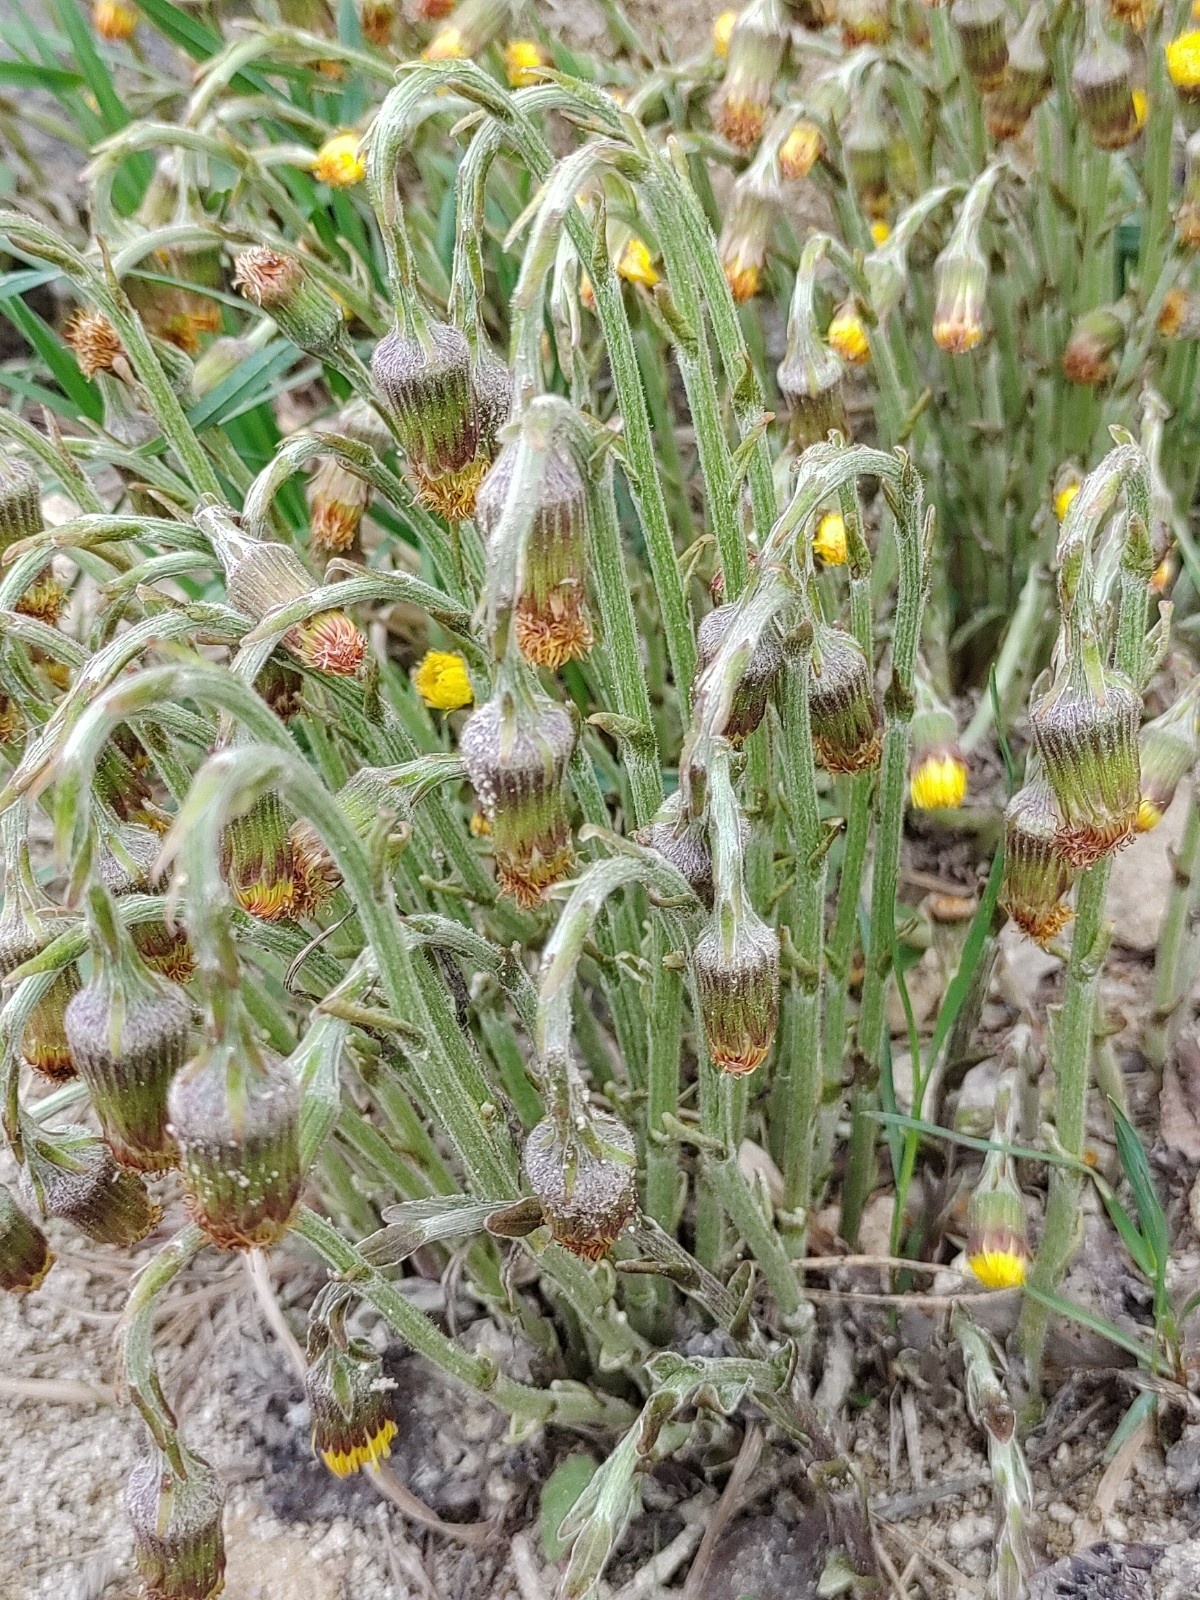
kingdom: Plantae
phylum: Tracheophyta
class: Magnoliopsida
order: Asterales
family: Asteraceae
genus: Tussilago
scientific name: Tussilago farfara
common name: Coltsfoot
